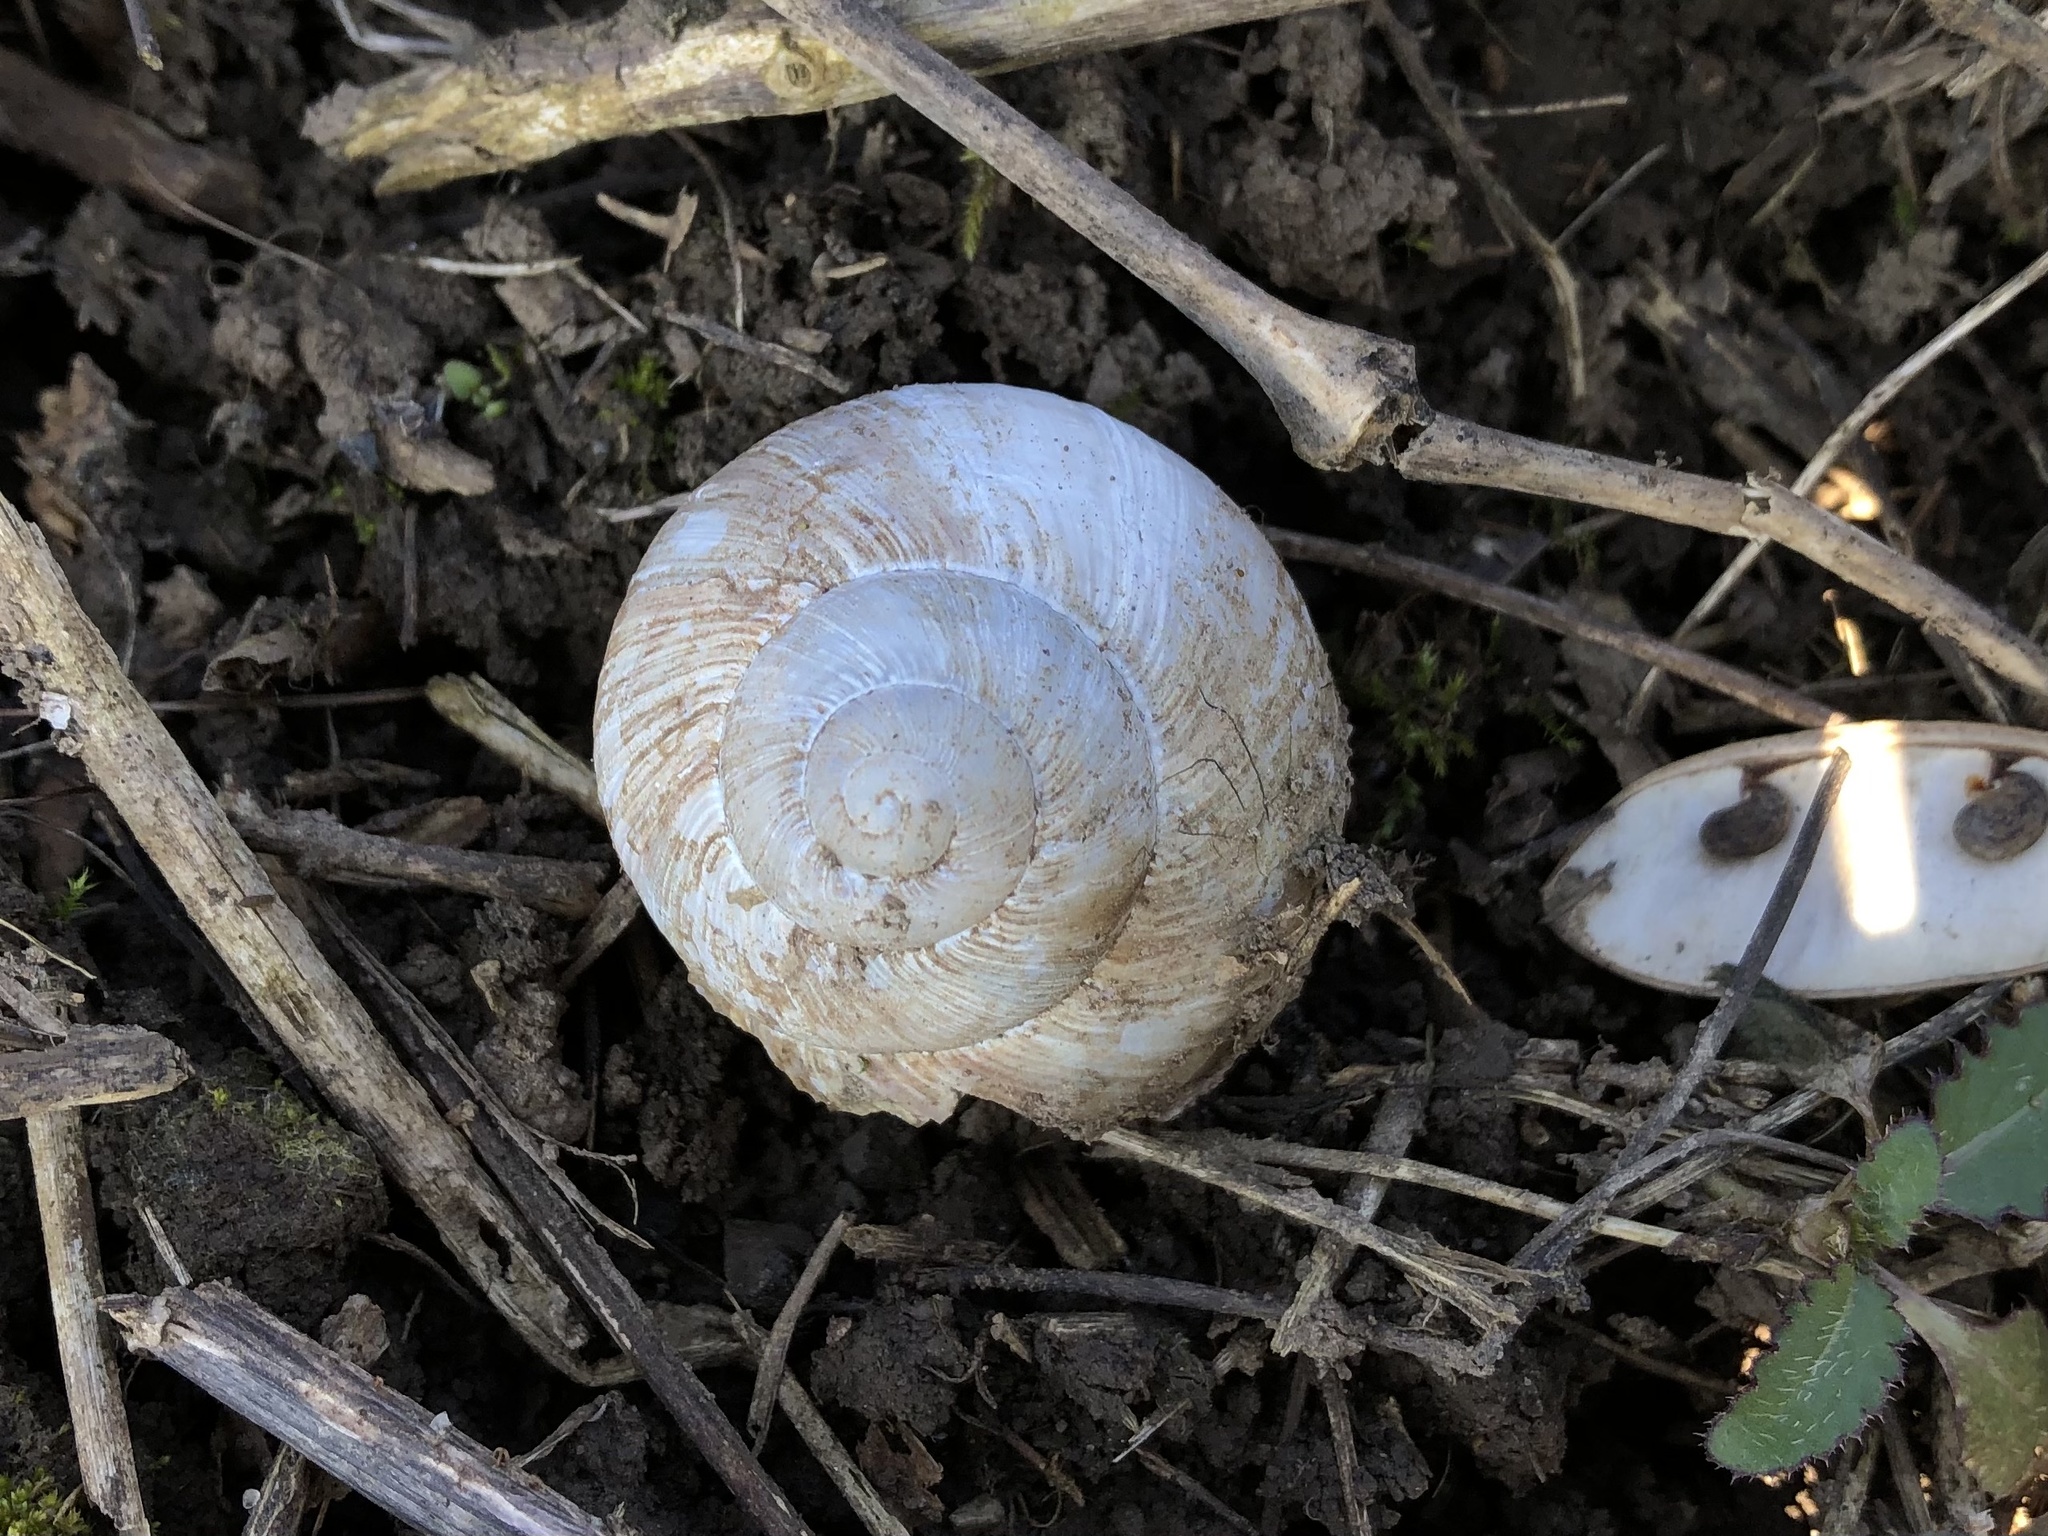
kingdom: Animalia
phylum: Mollusca
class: Gastropoda
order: Stylommatophora
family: Helicidae
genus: Helix
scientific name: Helix pomatia
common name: Roman snail
